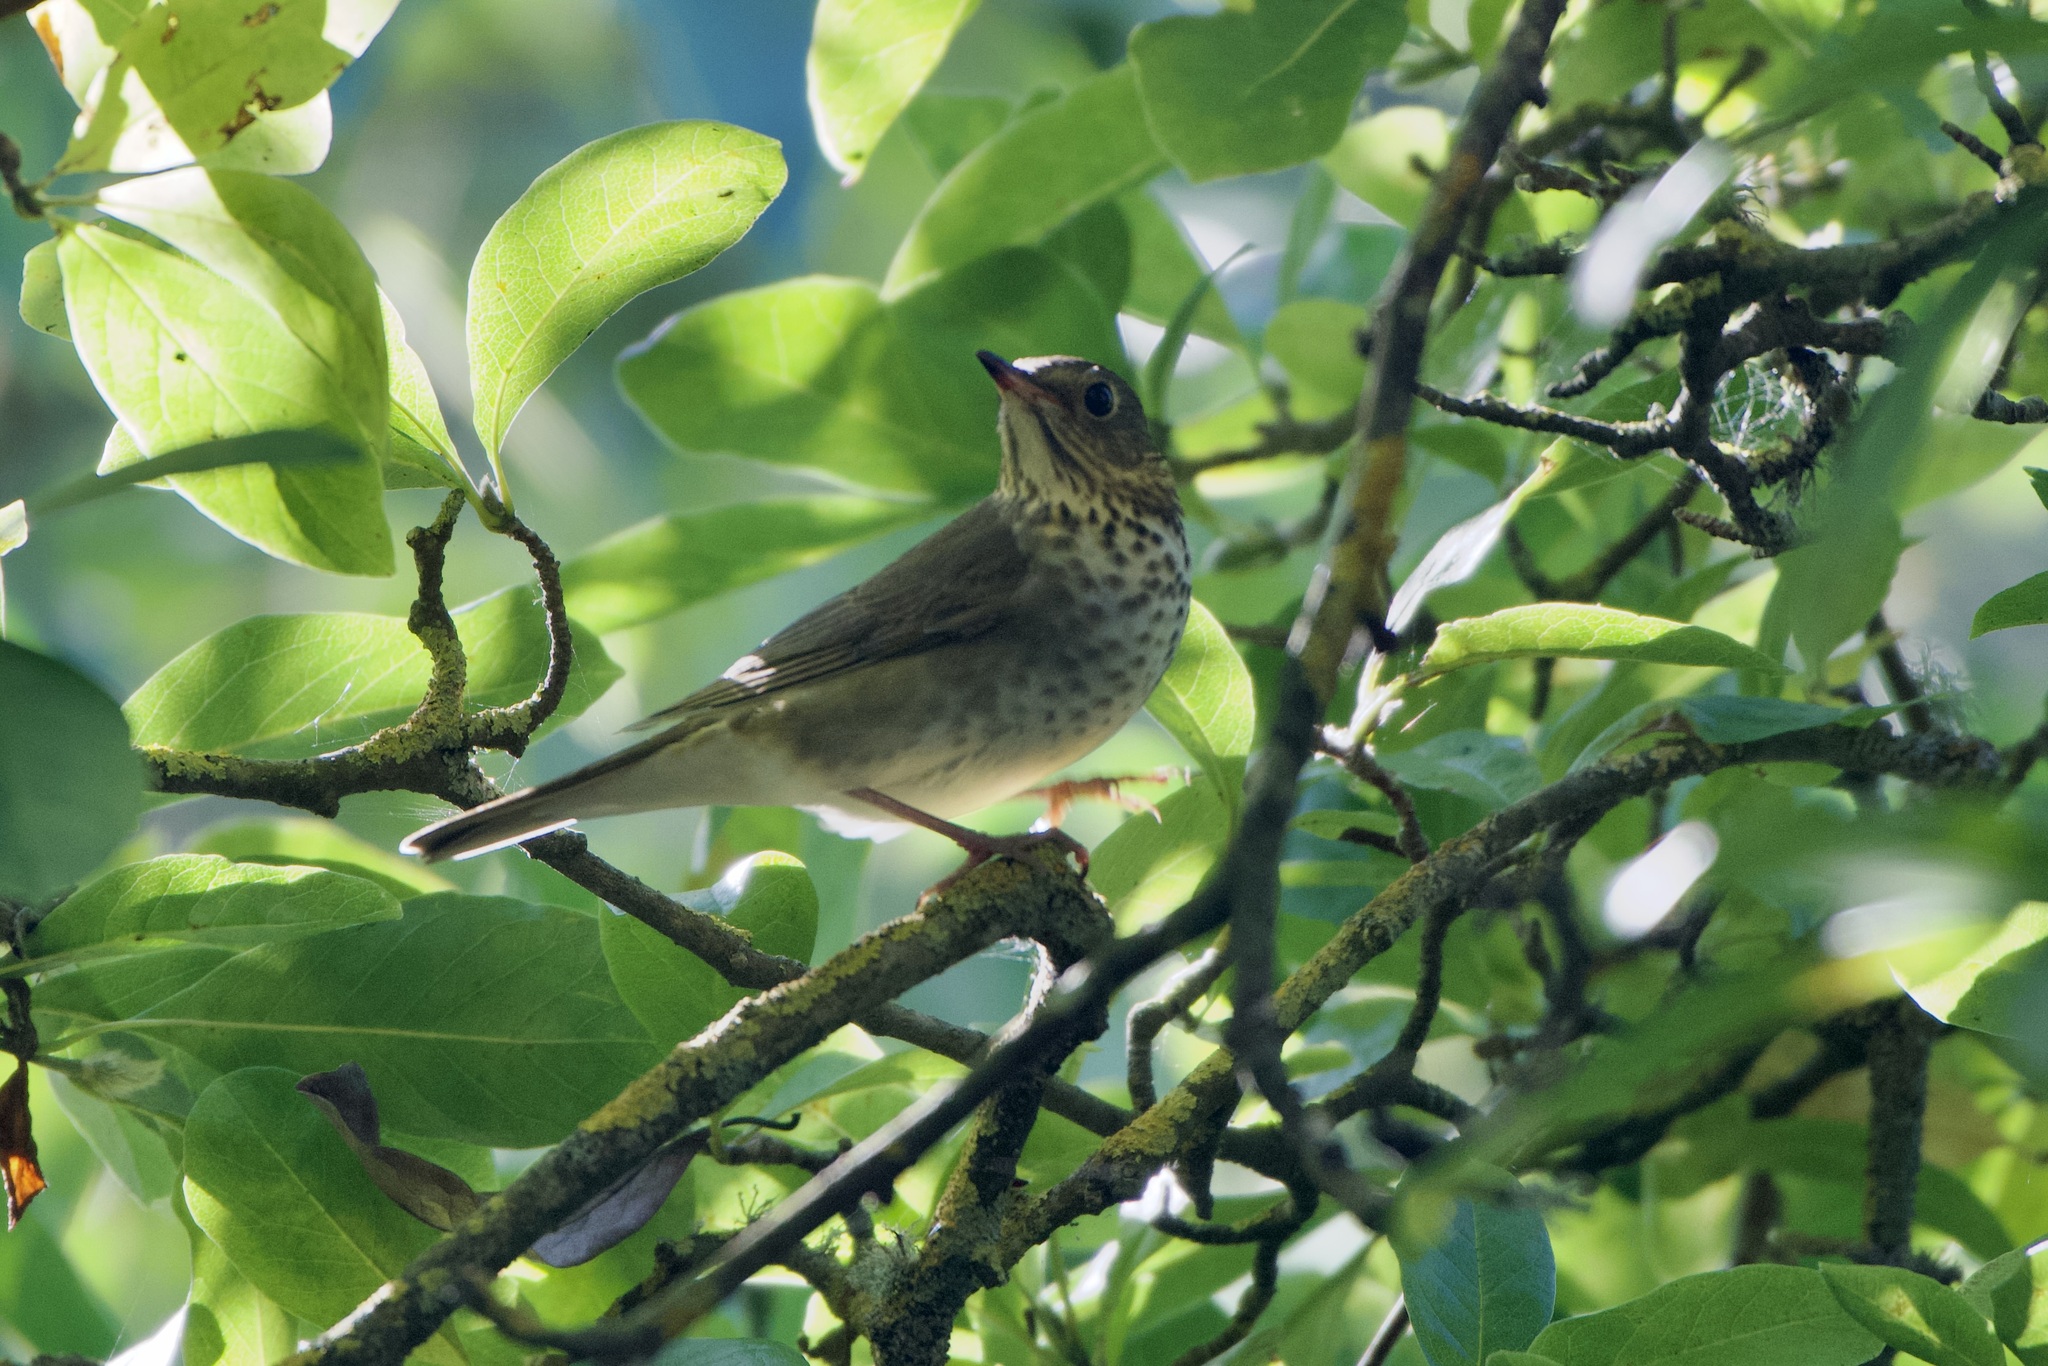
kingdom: Animalia
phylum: Chordata
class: Aves
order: Passeriformes
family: Turdidae
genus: Catharus
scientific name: Catharus ustulatus
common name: Swainson's thrush
